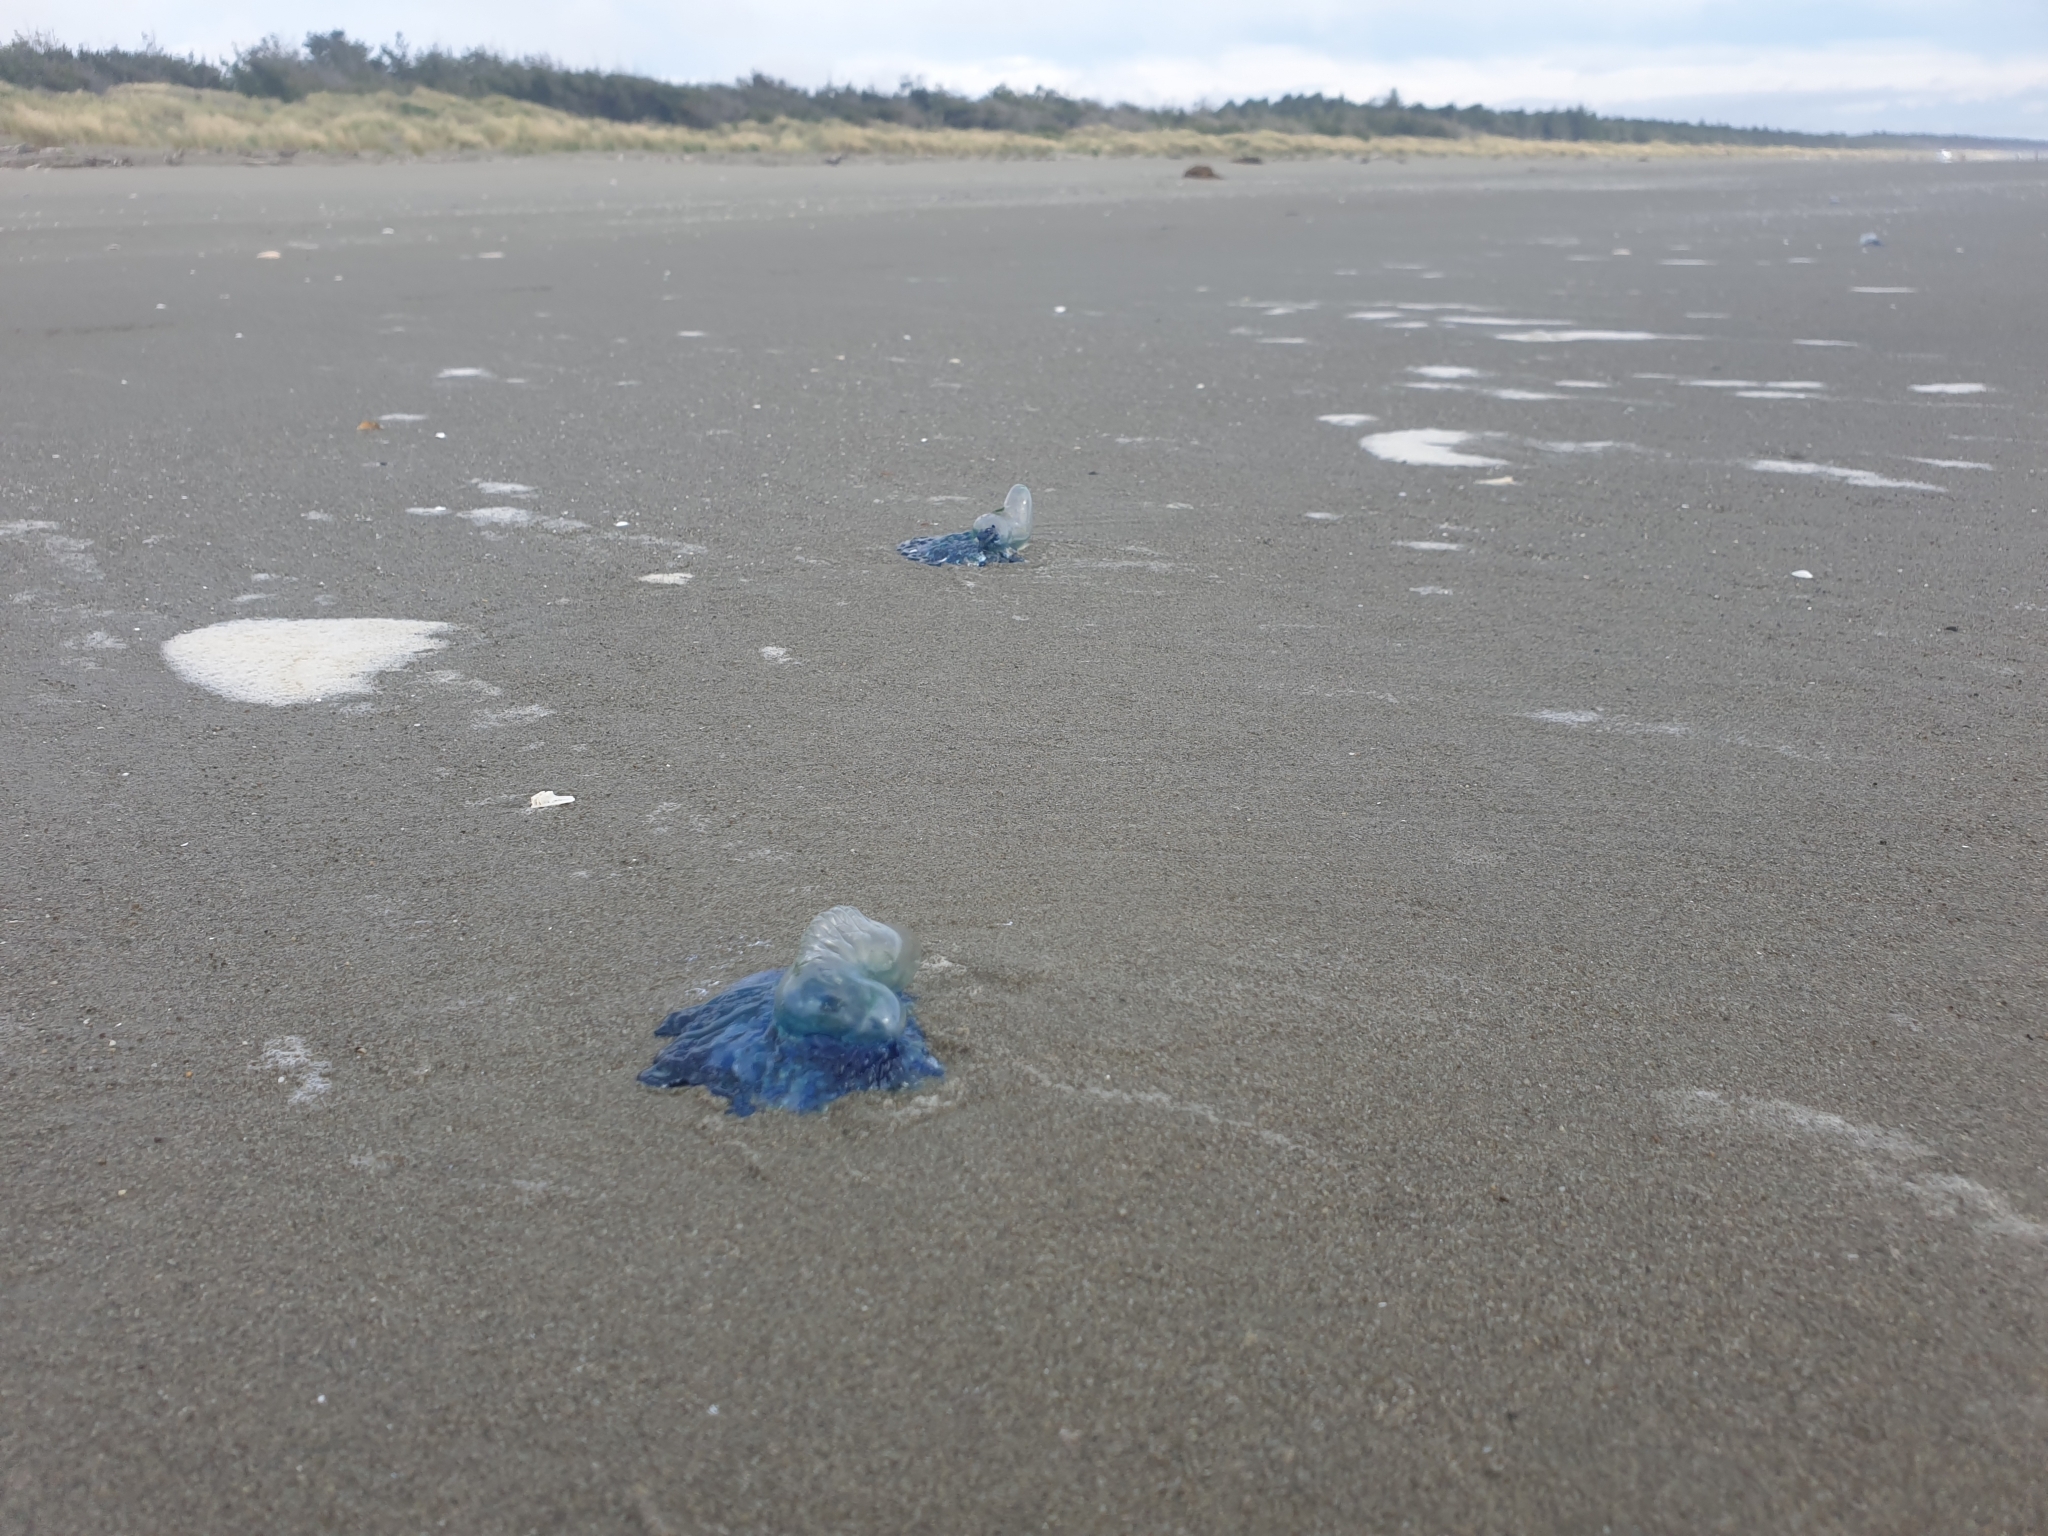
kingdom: Animalia
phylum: Cnidaria
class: Hydrozoa
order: Siphonophorae
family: Physaliidae
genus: Physalia
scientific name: Physalia physalis
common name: Portuguese man-of-war
